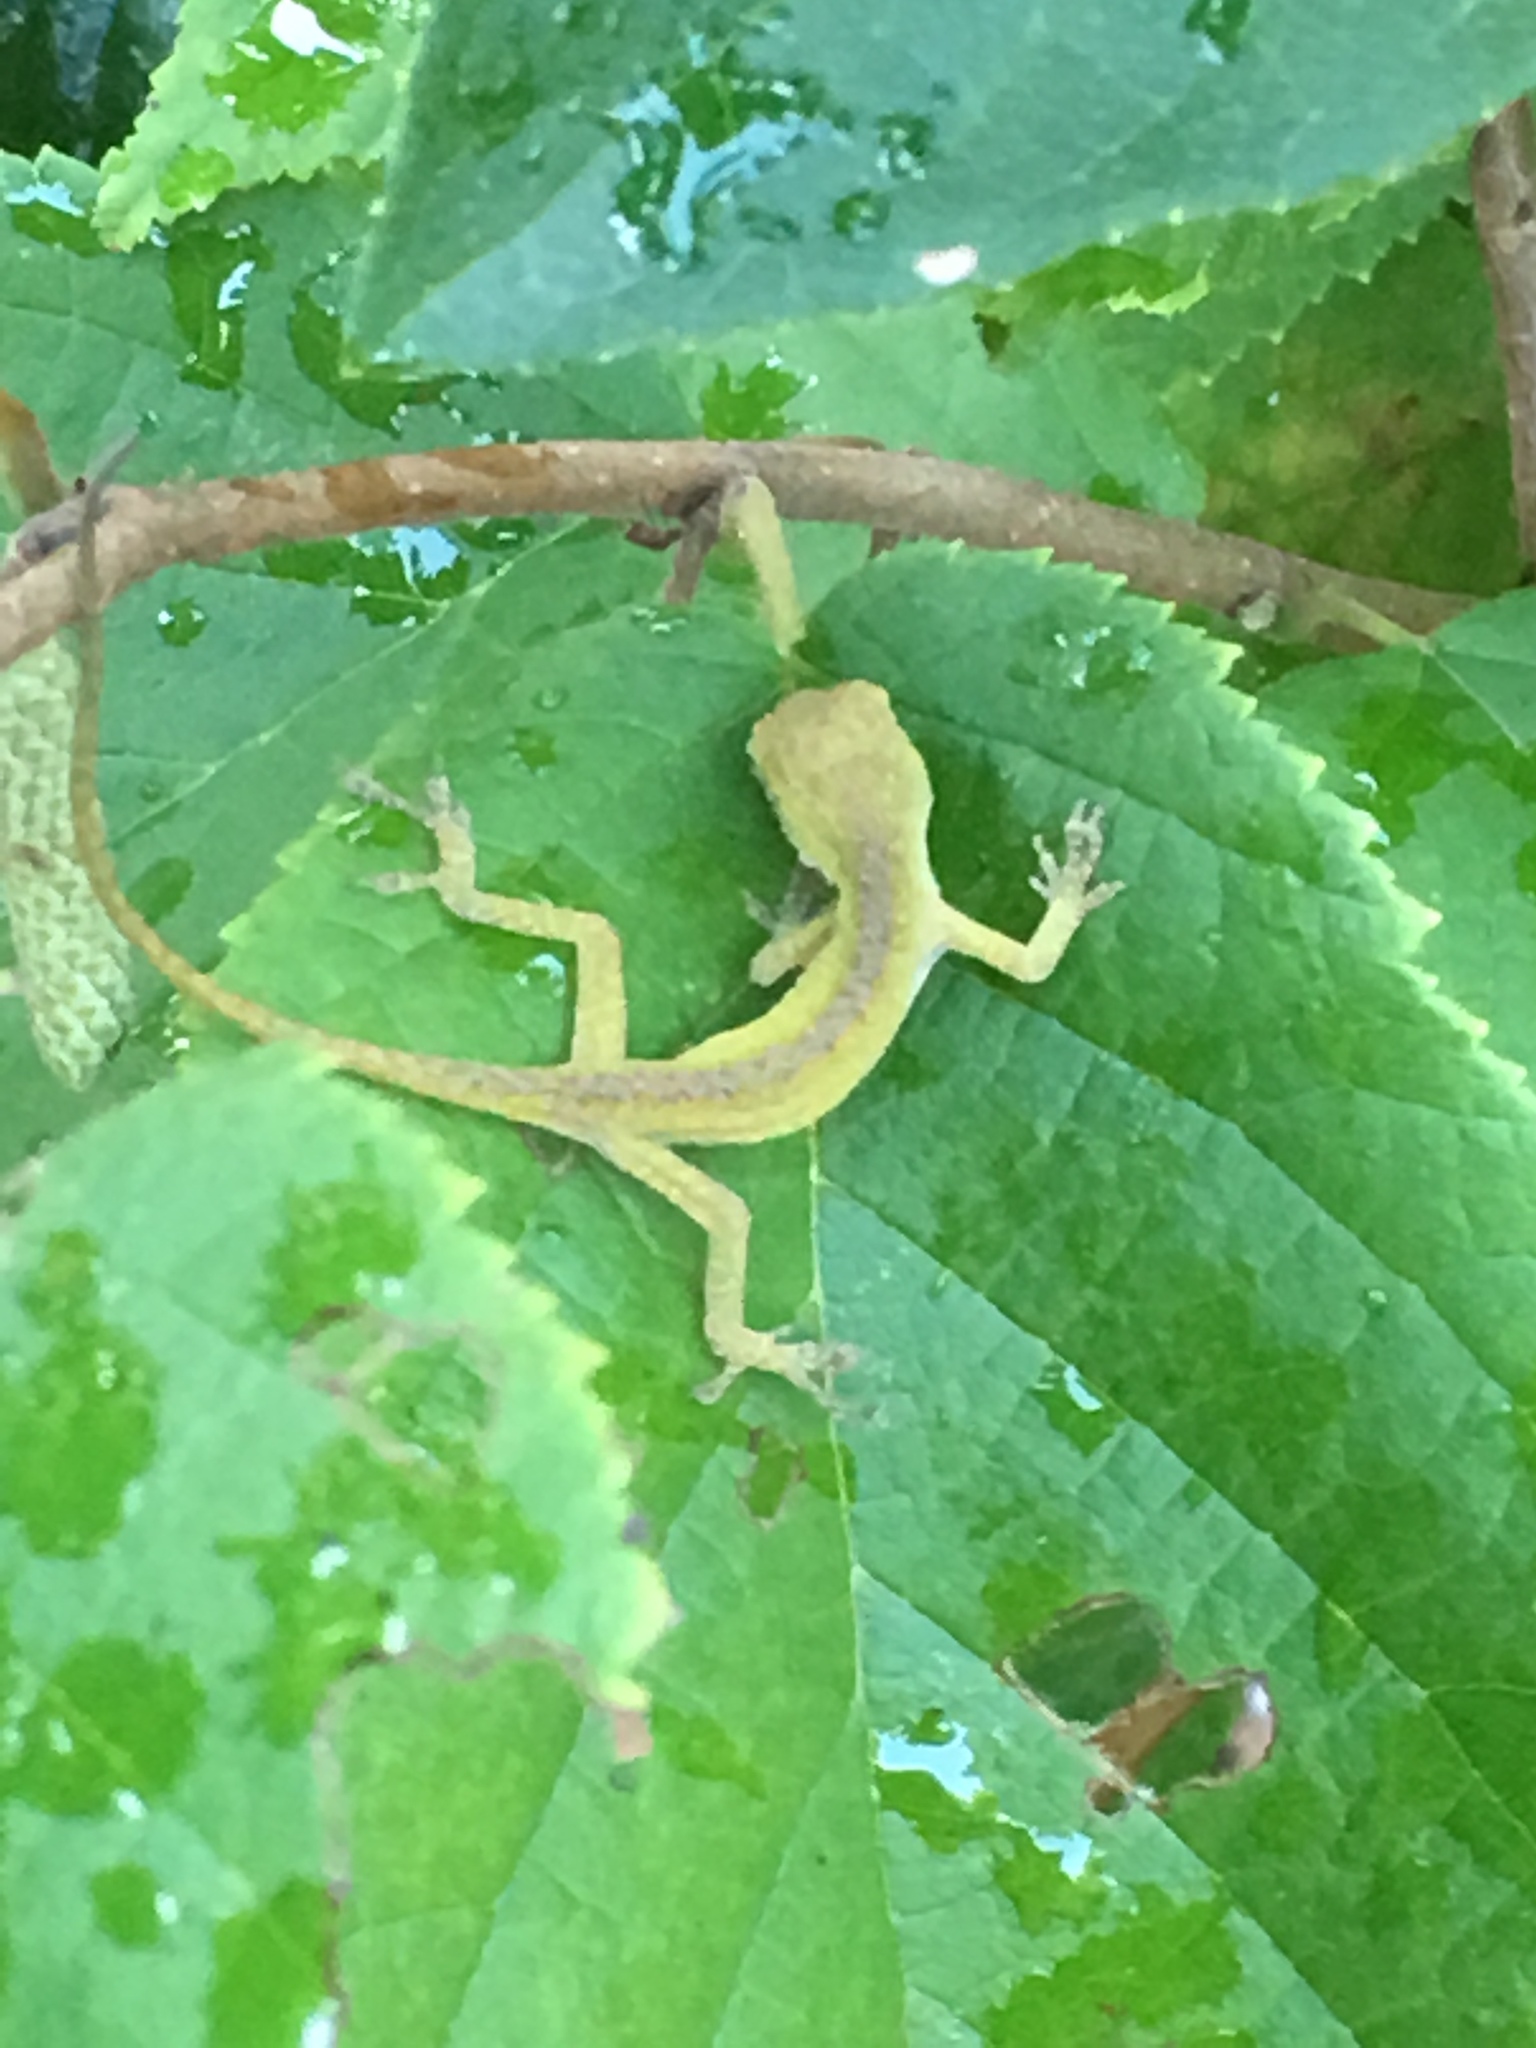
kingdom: Animalia
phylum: Chordata
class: Squamata
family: Dactyloidae
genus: Anolis
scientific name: Anolis carolinensis
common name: Green anole
